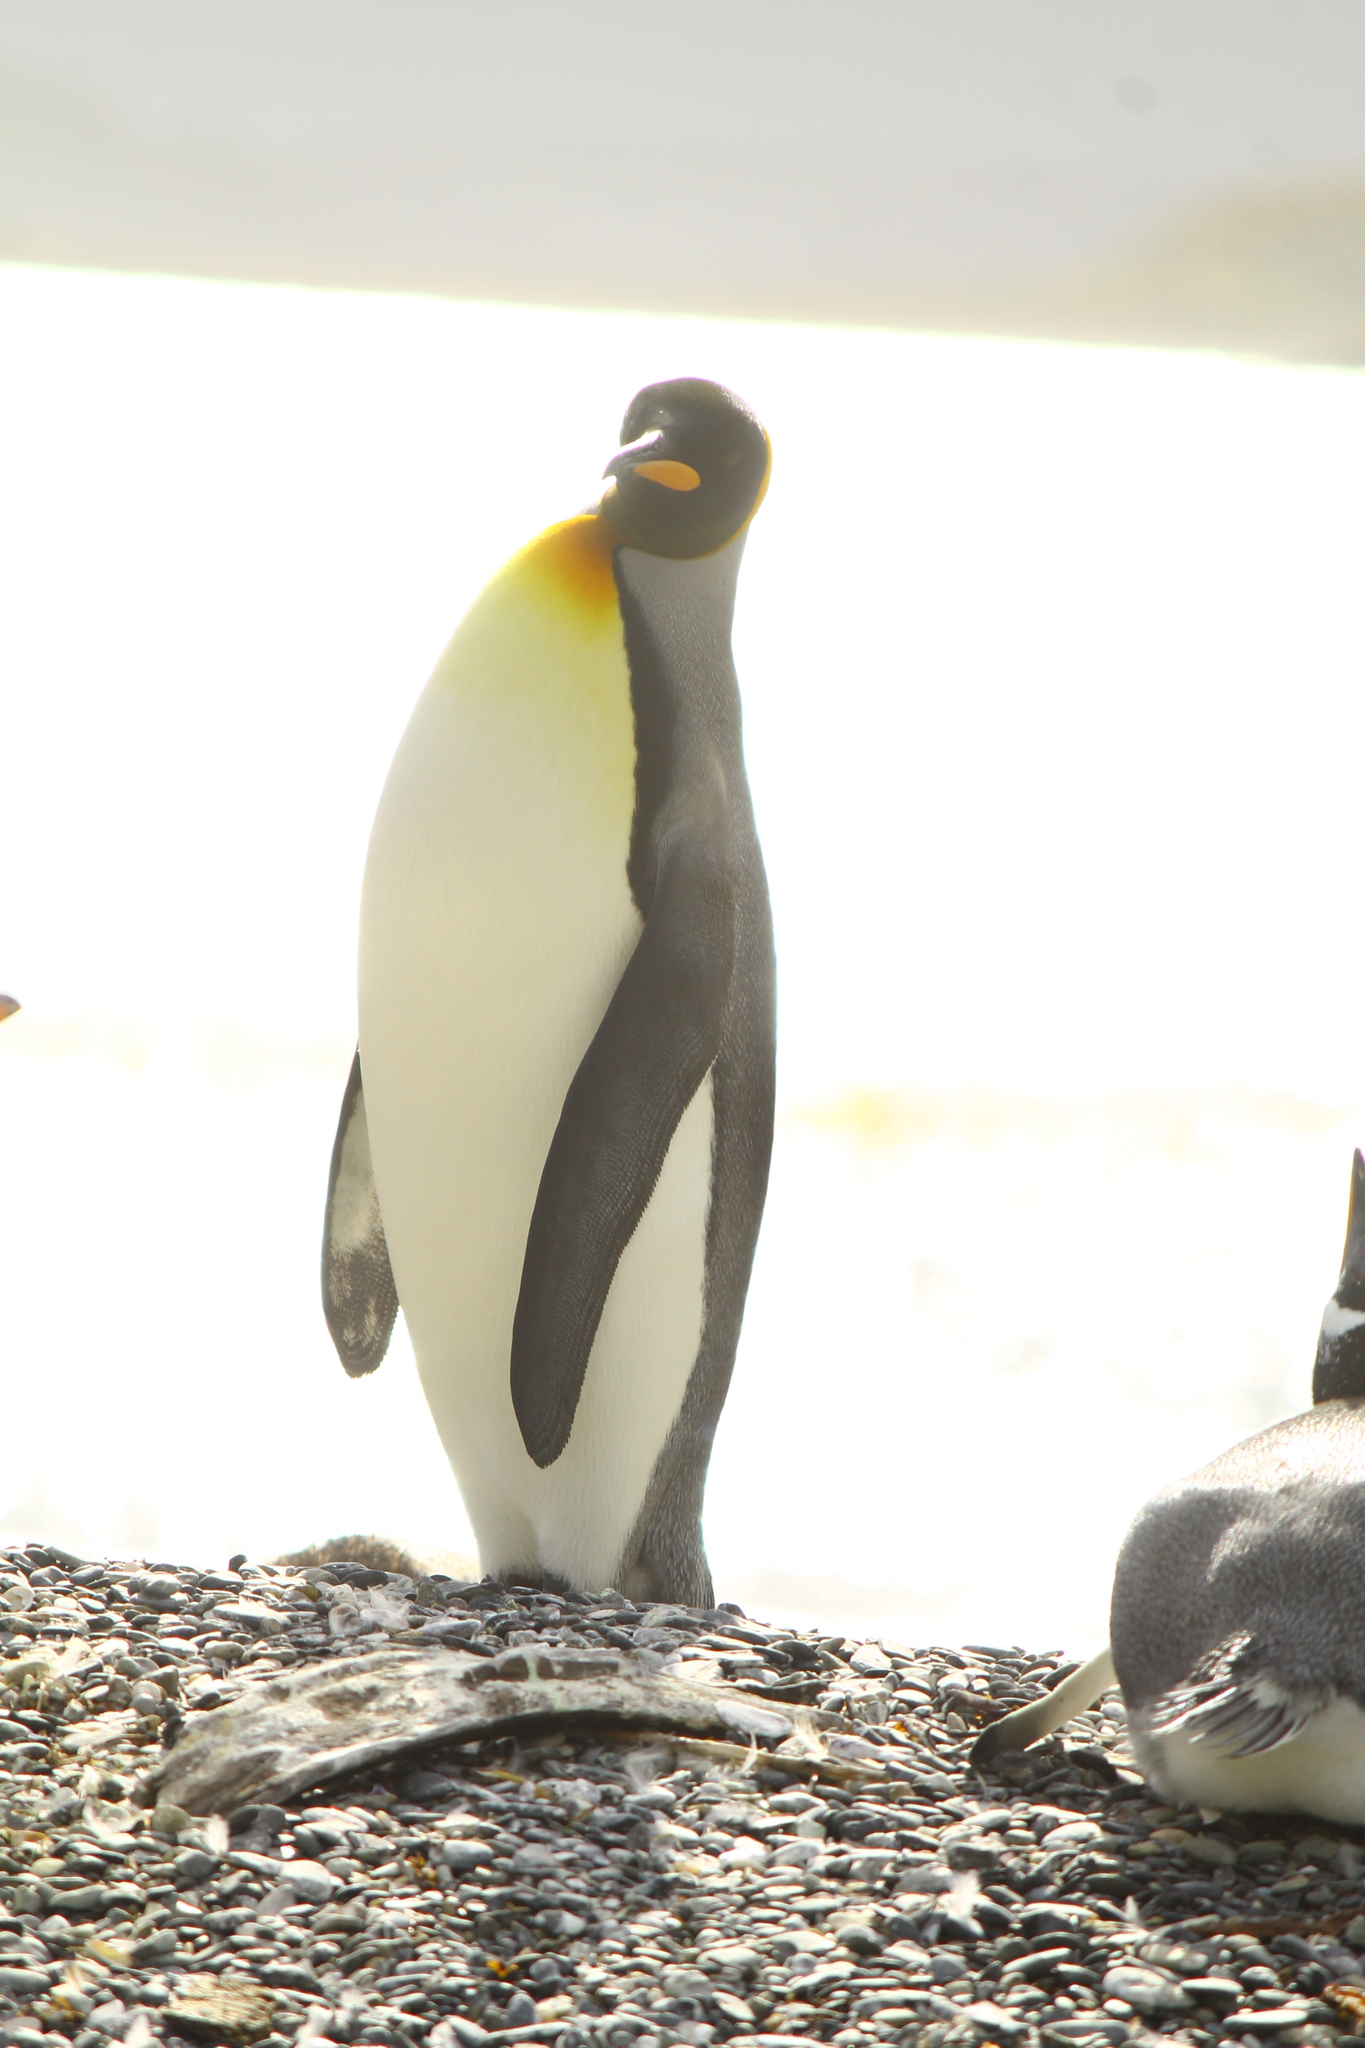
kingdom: Animalia
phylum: Chordata
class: Aves
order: Sphenisciformes
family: Spheniscidae
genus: Aptenodytes
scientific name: Aptenodytes patagonicus
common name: King penguin
